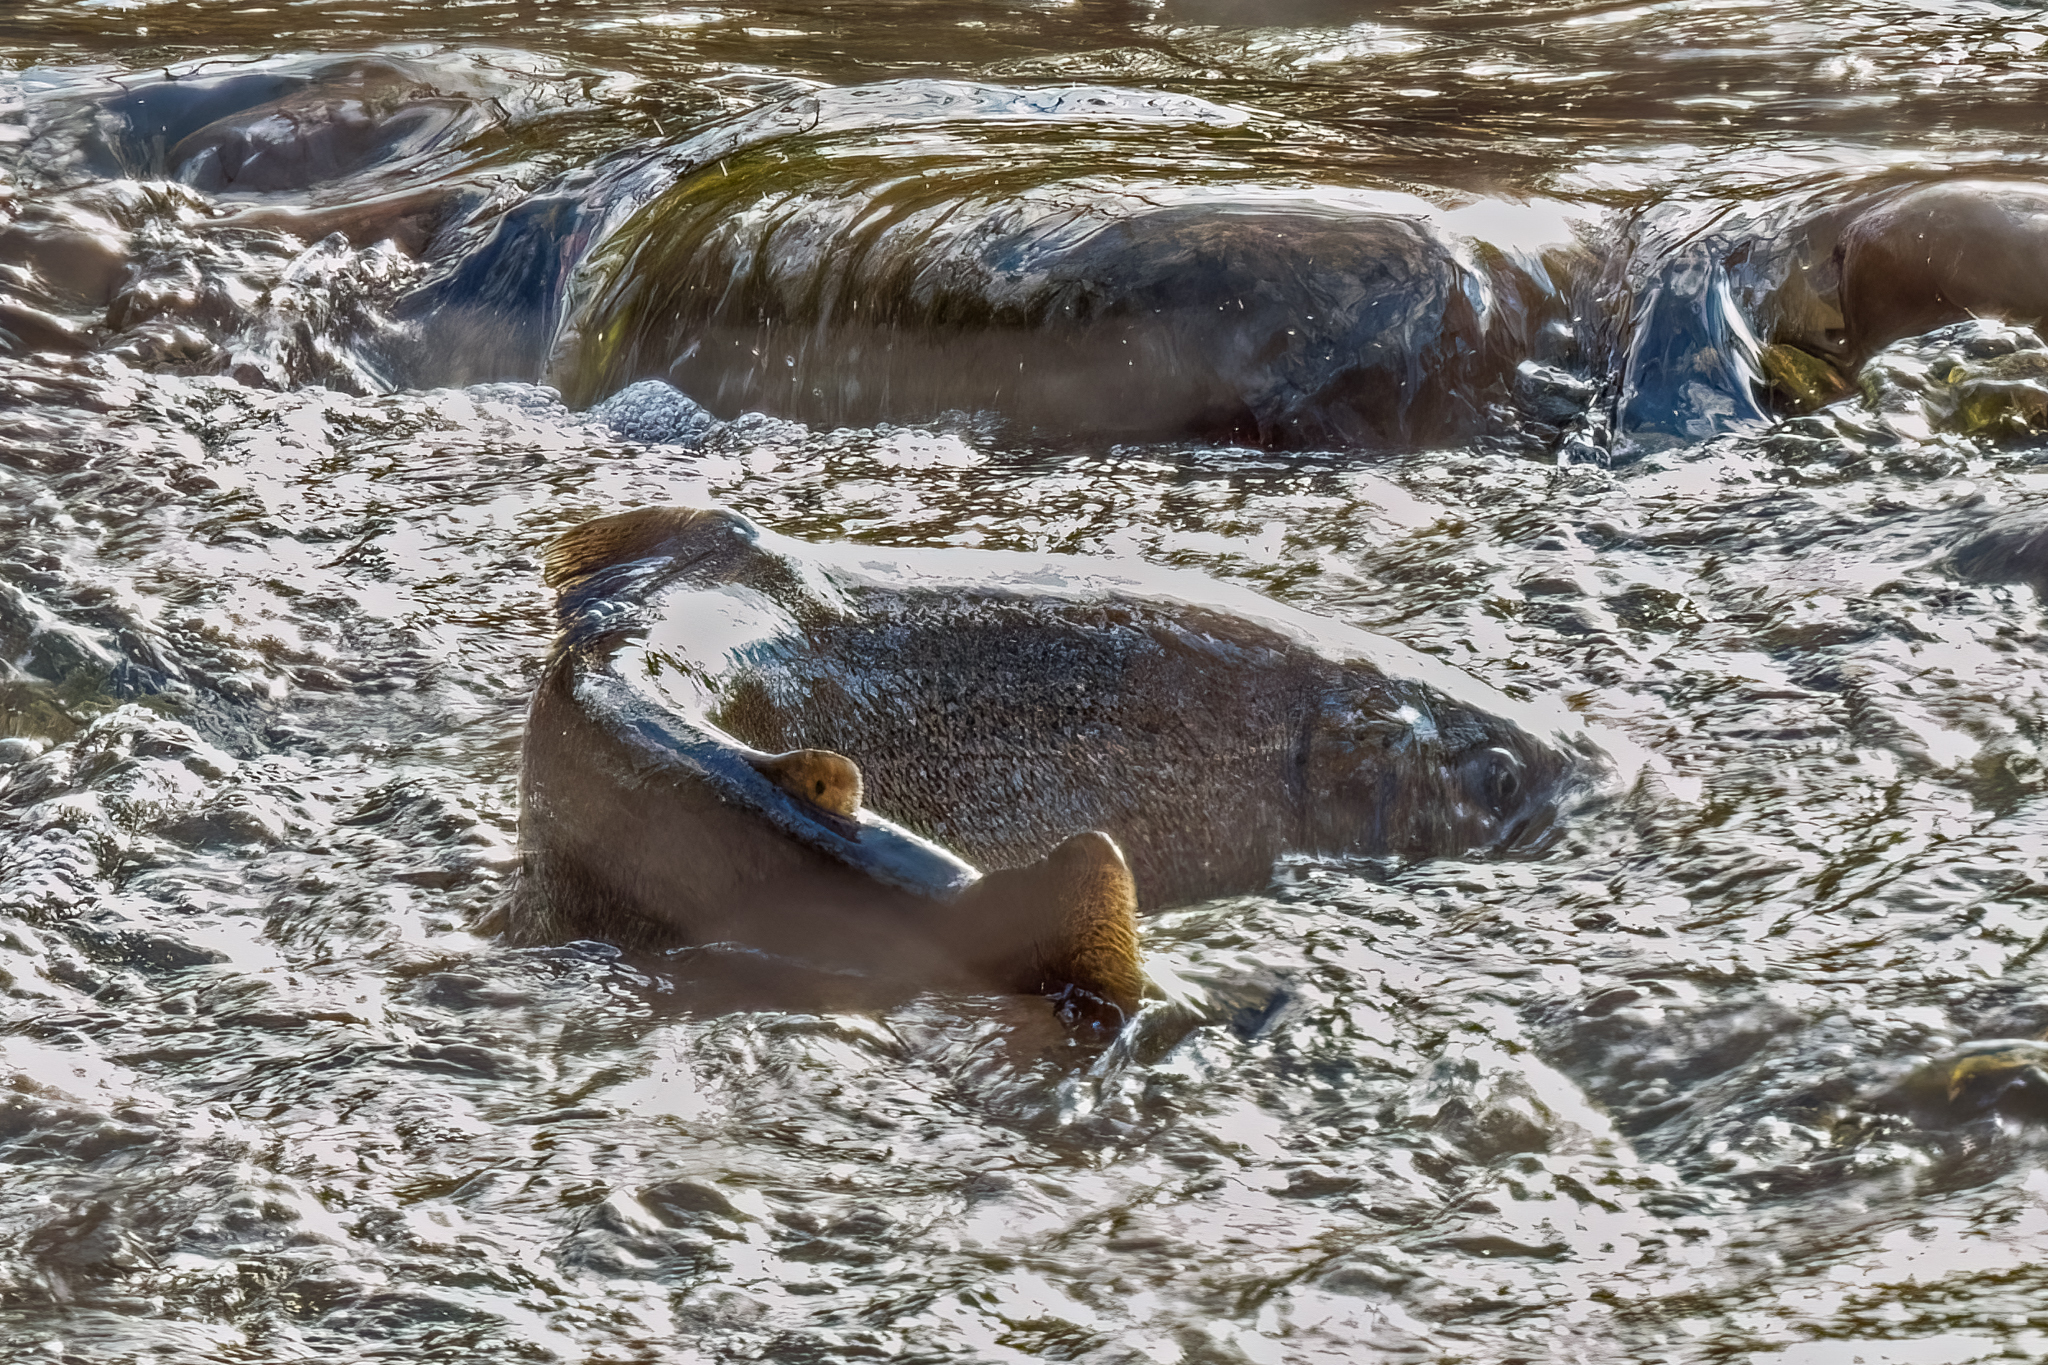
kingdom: Animalia
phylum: Chordata
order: Salmoniformes
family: Salmonidae
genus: Oncorhynchus
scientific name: Oncorhynchus tshawytscha
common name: Chinook salmon
